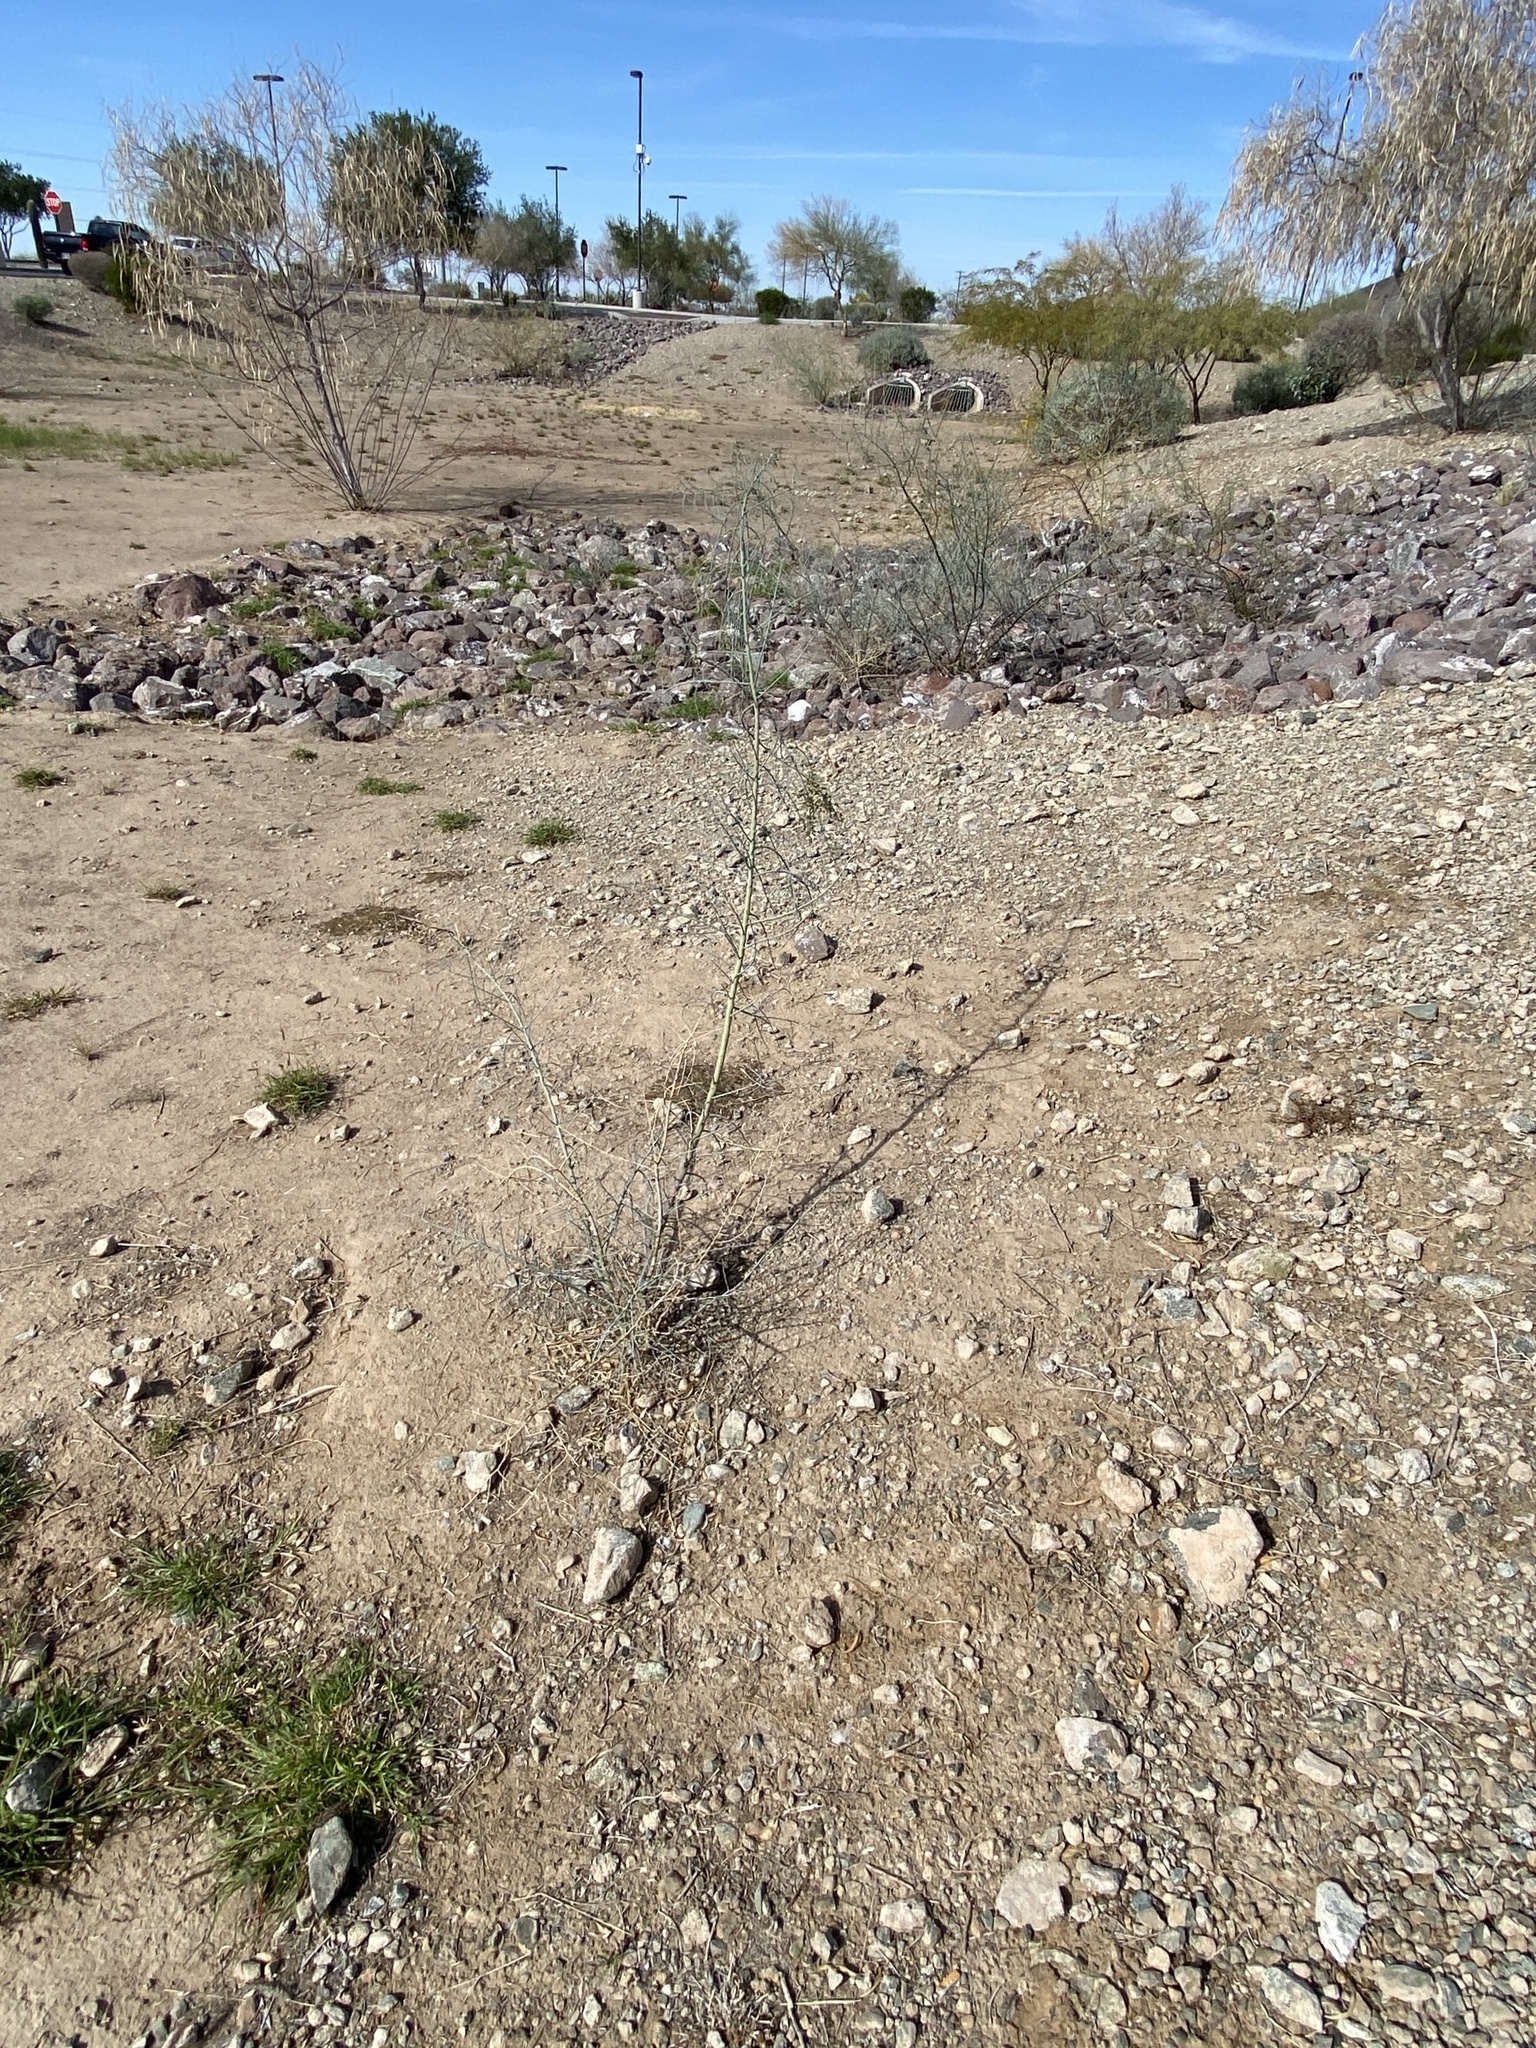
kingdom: Plantae
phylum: Tracheophyta
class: Magnoliopsida
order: Fabales
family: Fabaceae
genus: Parkinsonia
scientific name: Parkinsonia florida
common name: Blue paloverde
